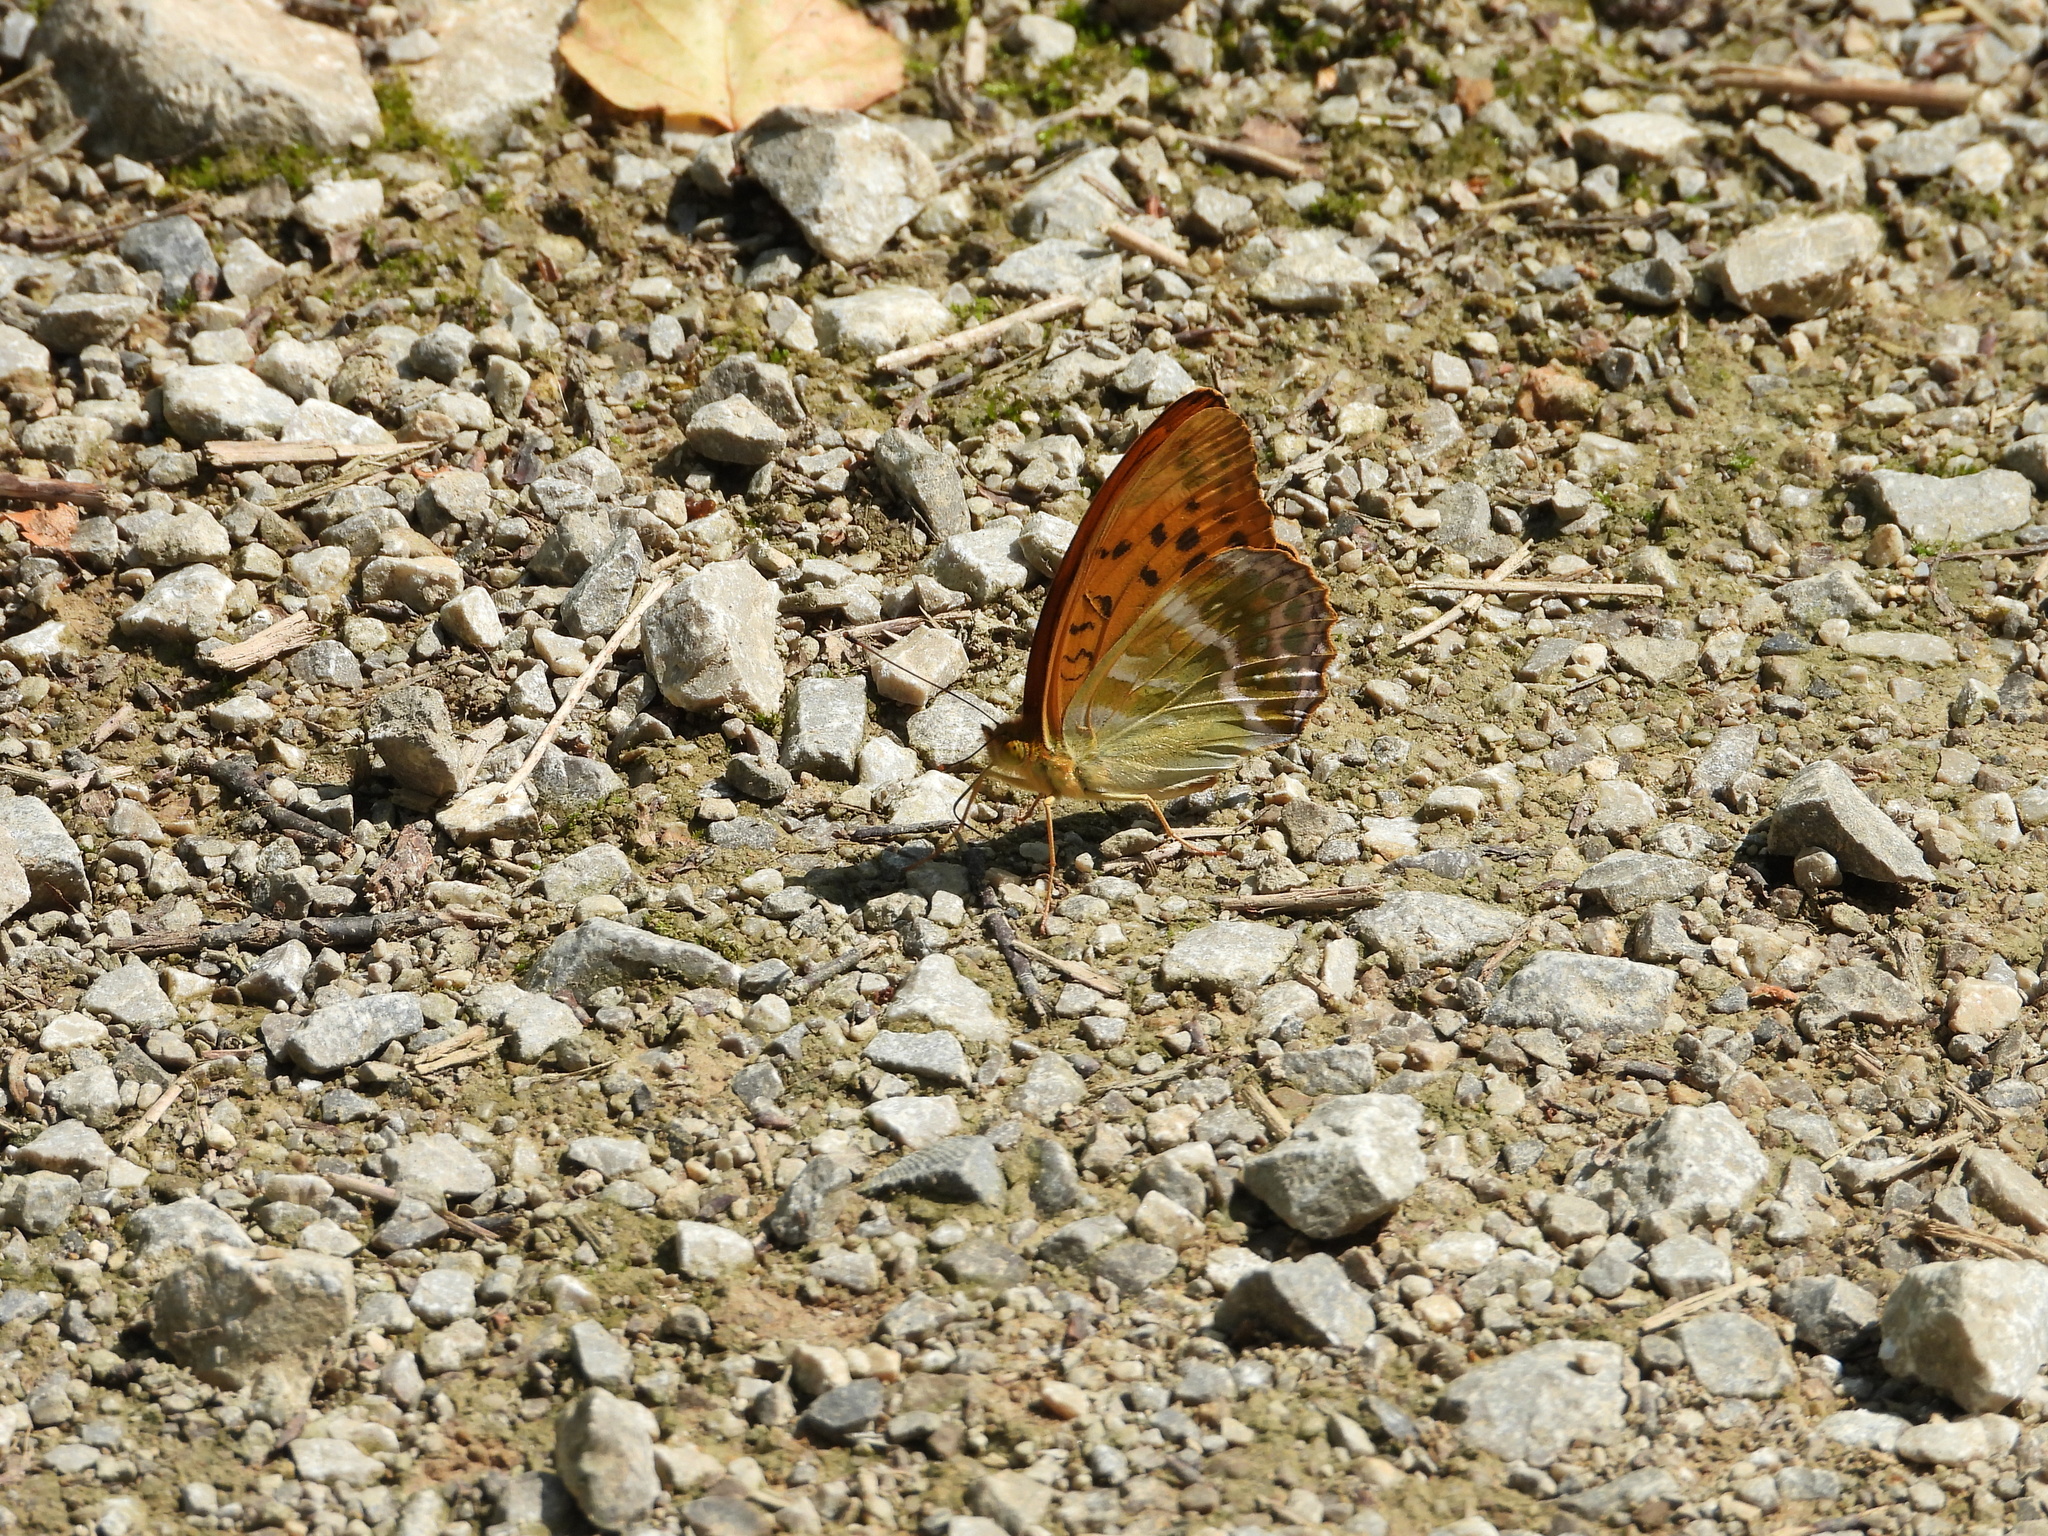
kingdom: Animalia
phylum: Arthropoda
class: Insecta
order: Lepidoptera
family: Nymphalidae
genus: Argynnis
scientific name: Argynnis paphia
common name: Silver-washed fritillary
